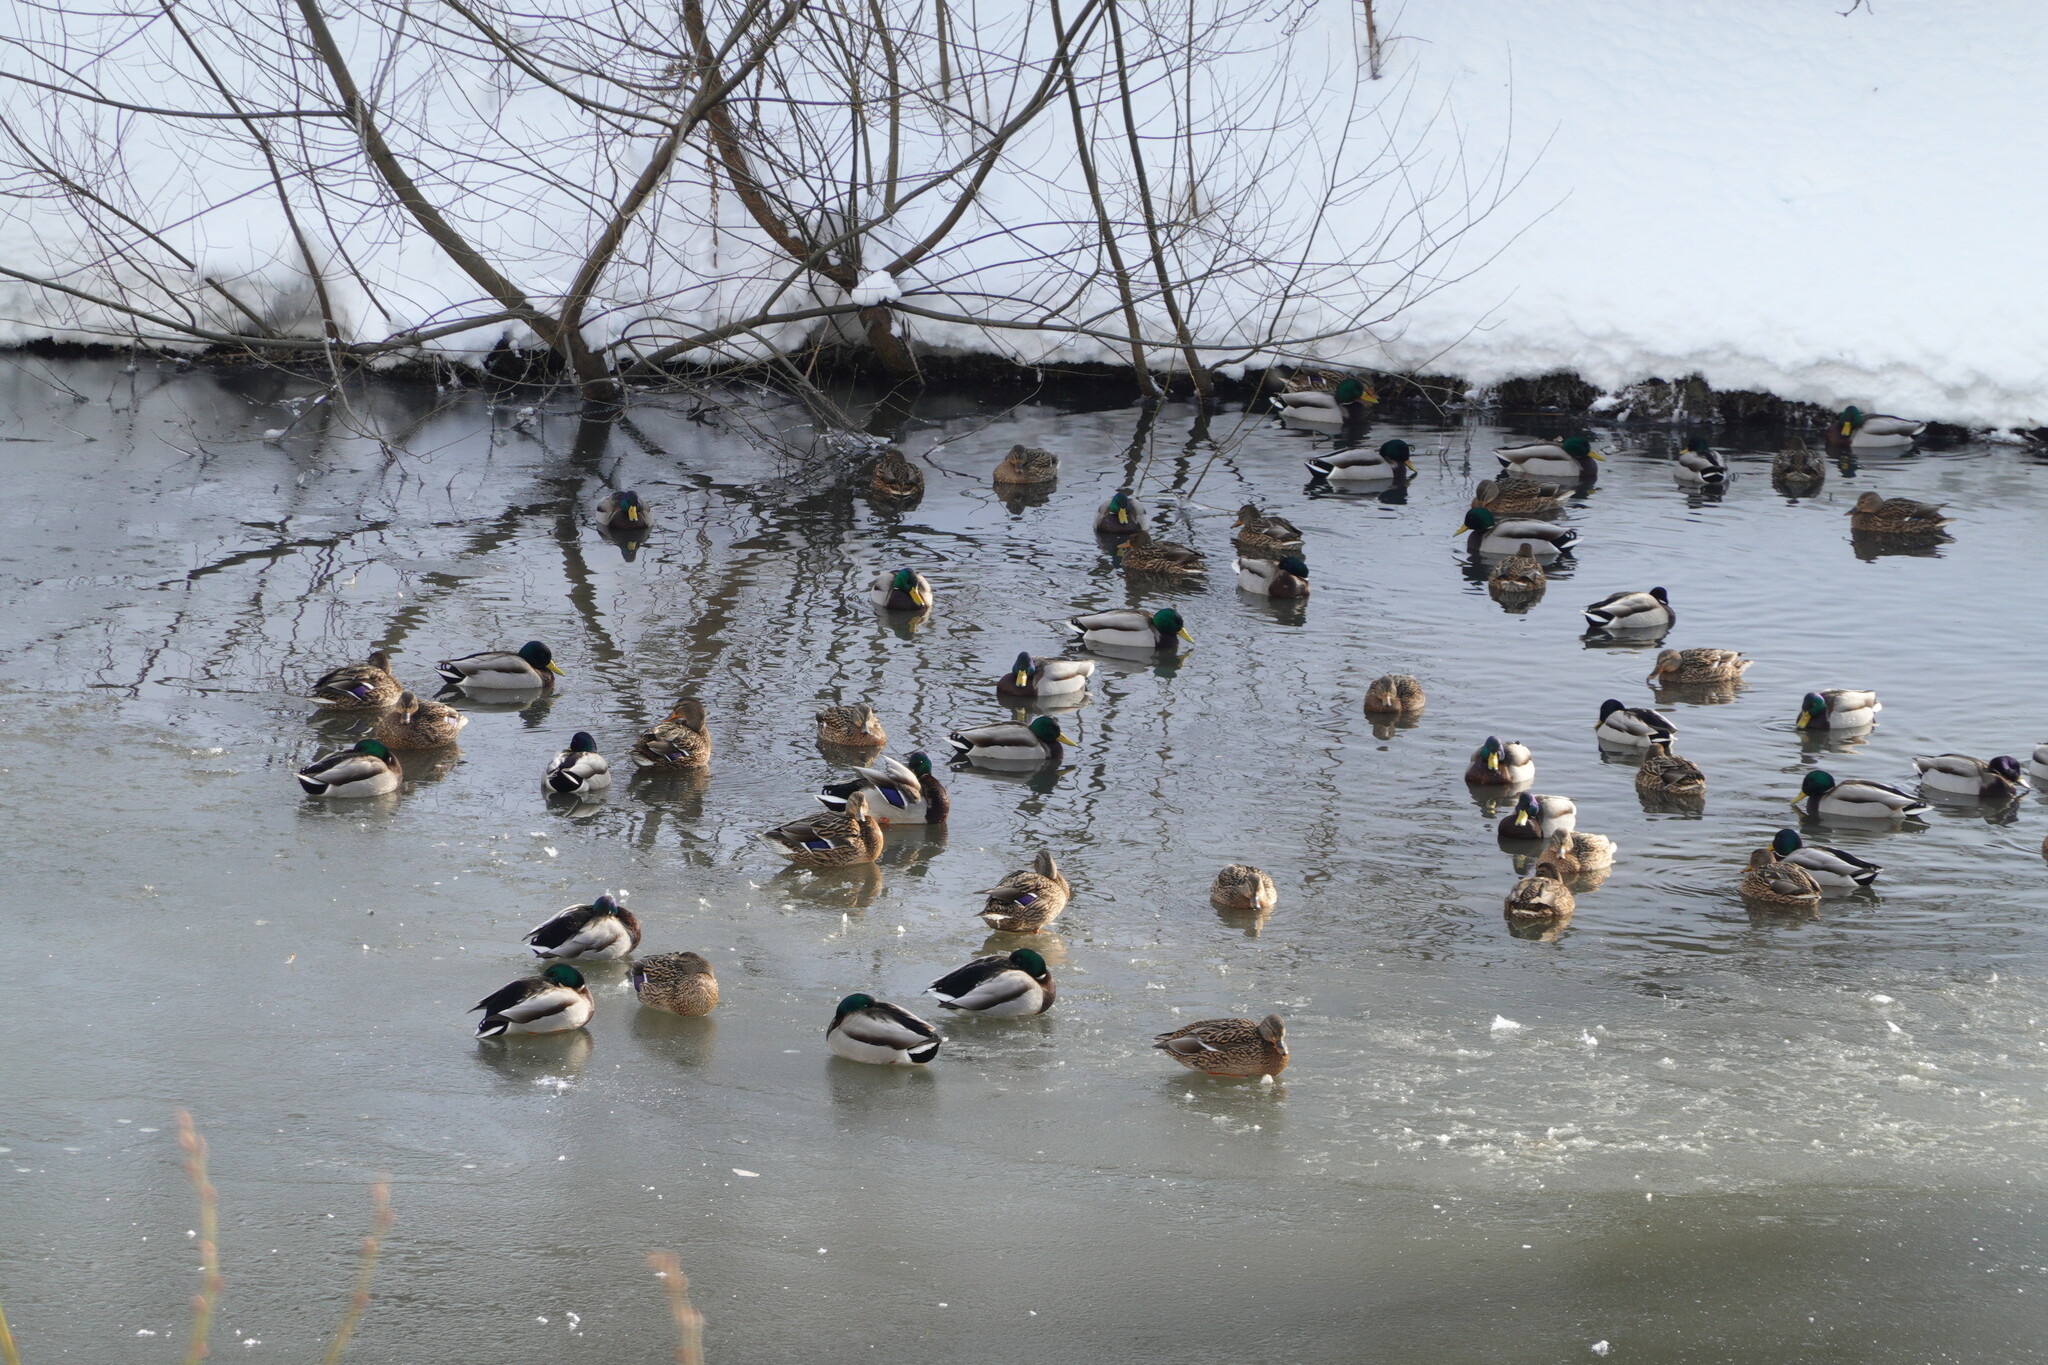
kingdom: Animalia
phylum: Chordata
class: Aves
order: Anseriformes
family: Anatidae
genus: Anas
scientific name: Anas platyrhynchos
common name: Mallard
